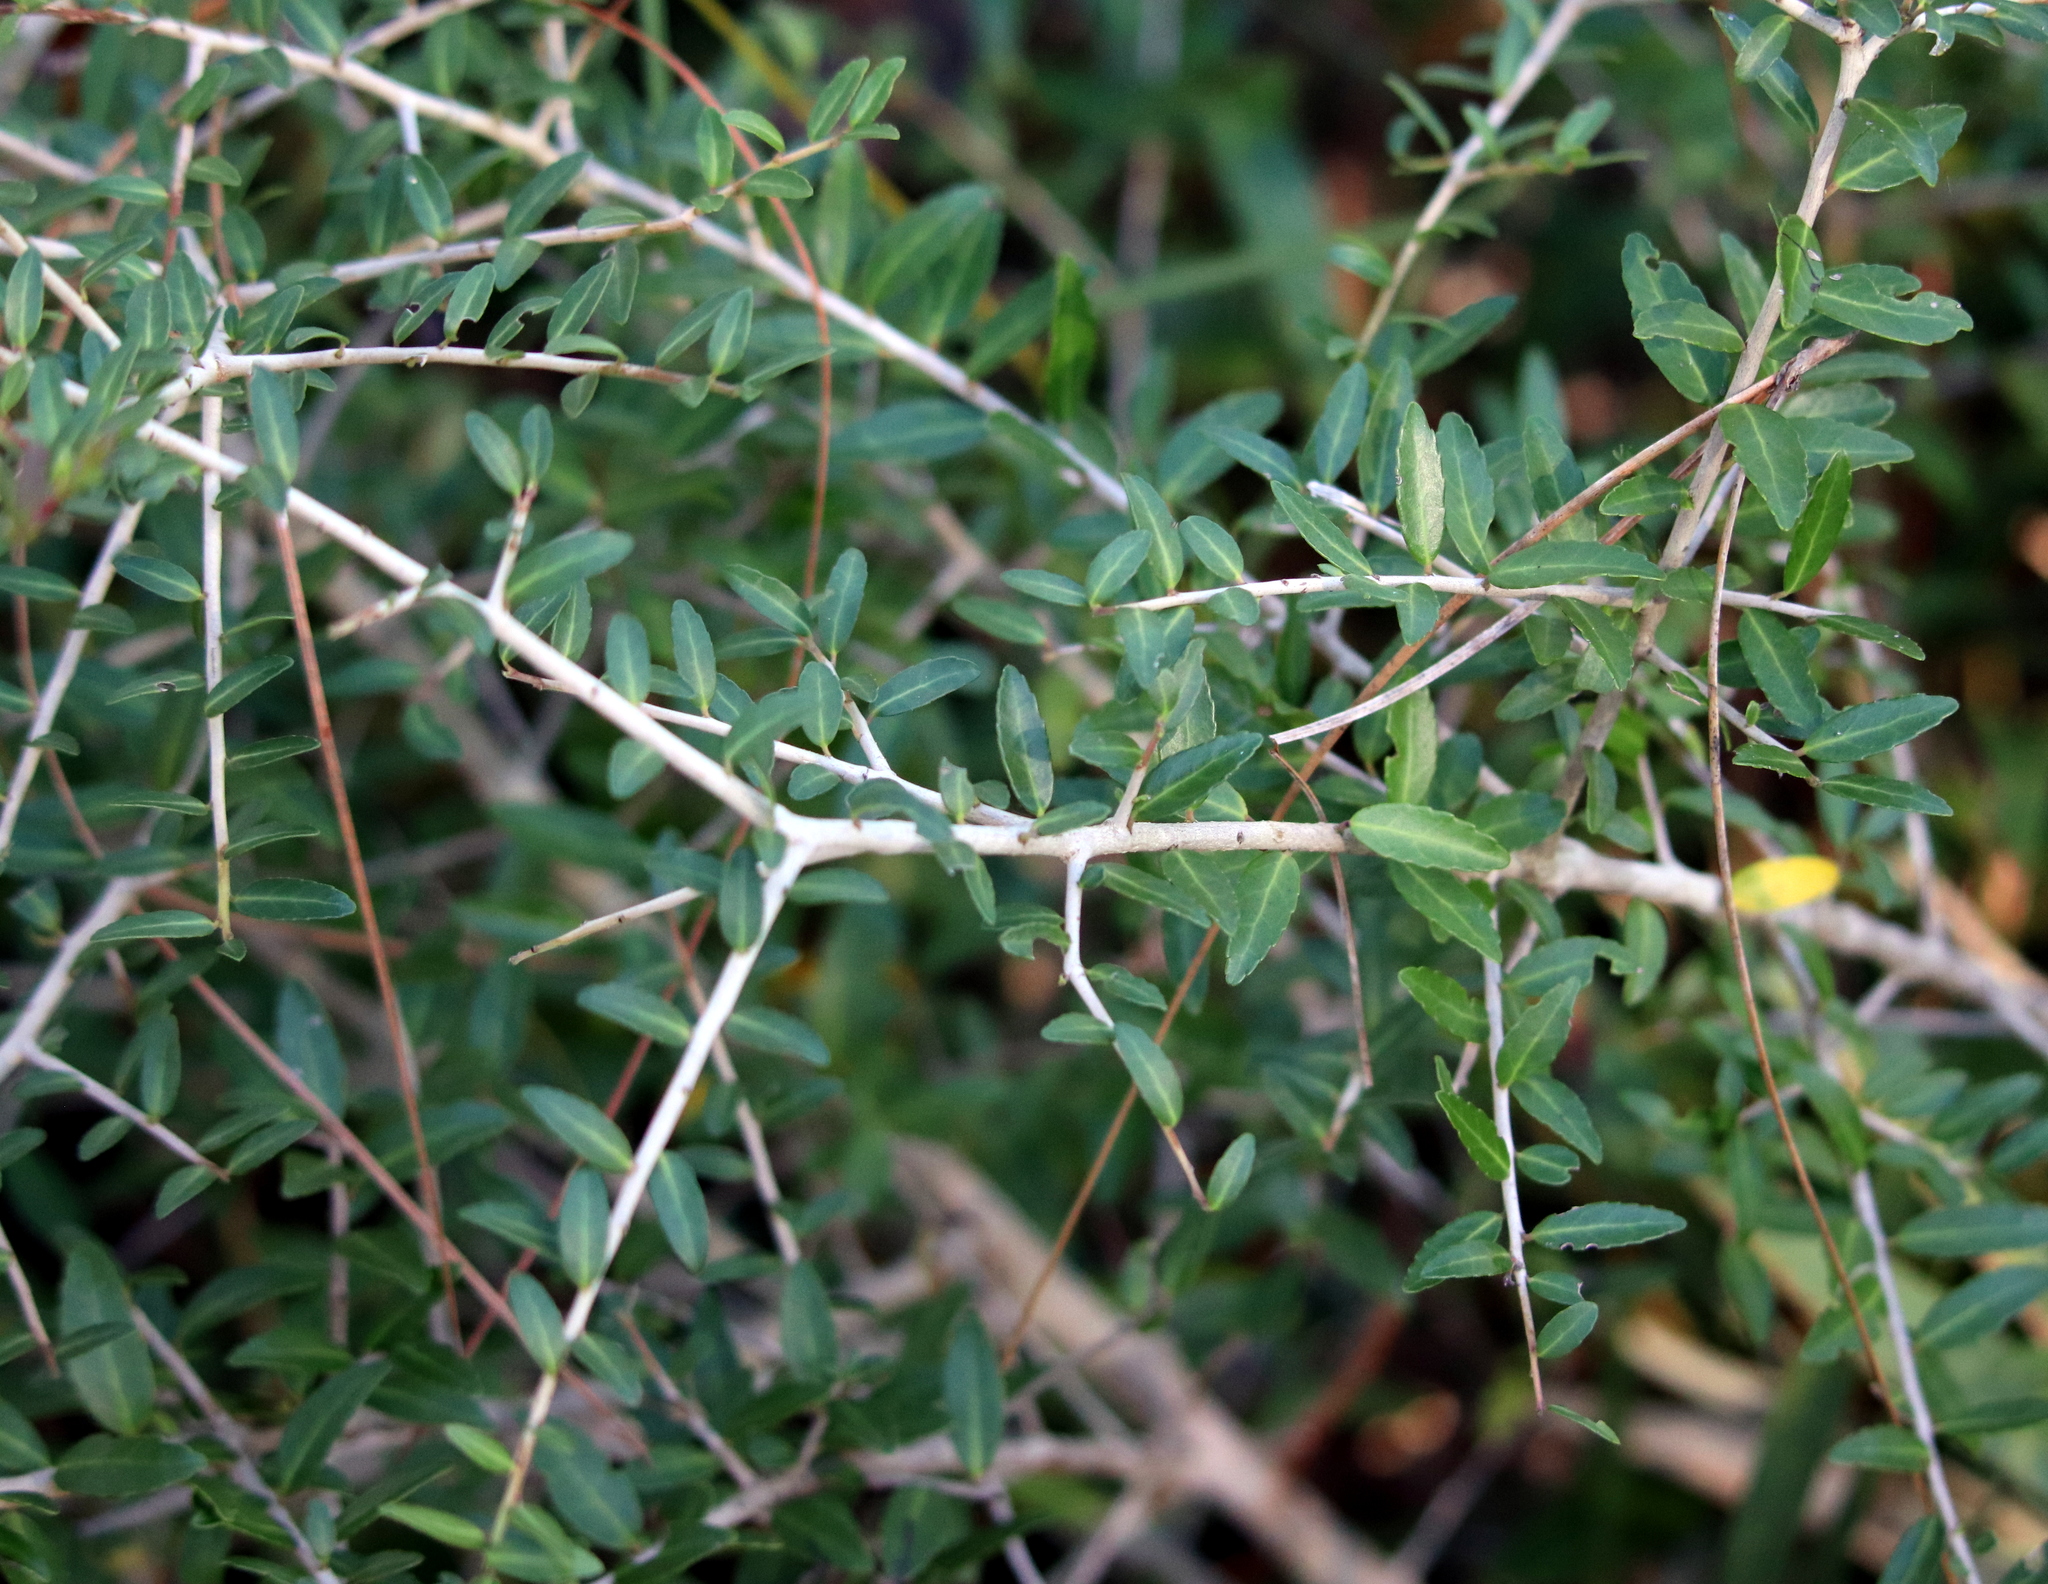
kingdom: Plantae
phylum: Tracheophyta
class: Magnoliopsida
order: Aquifoliales
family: Aquifoliaceae
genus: Ilex
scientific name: Ilex vomitoria
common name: Yaupon holly
